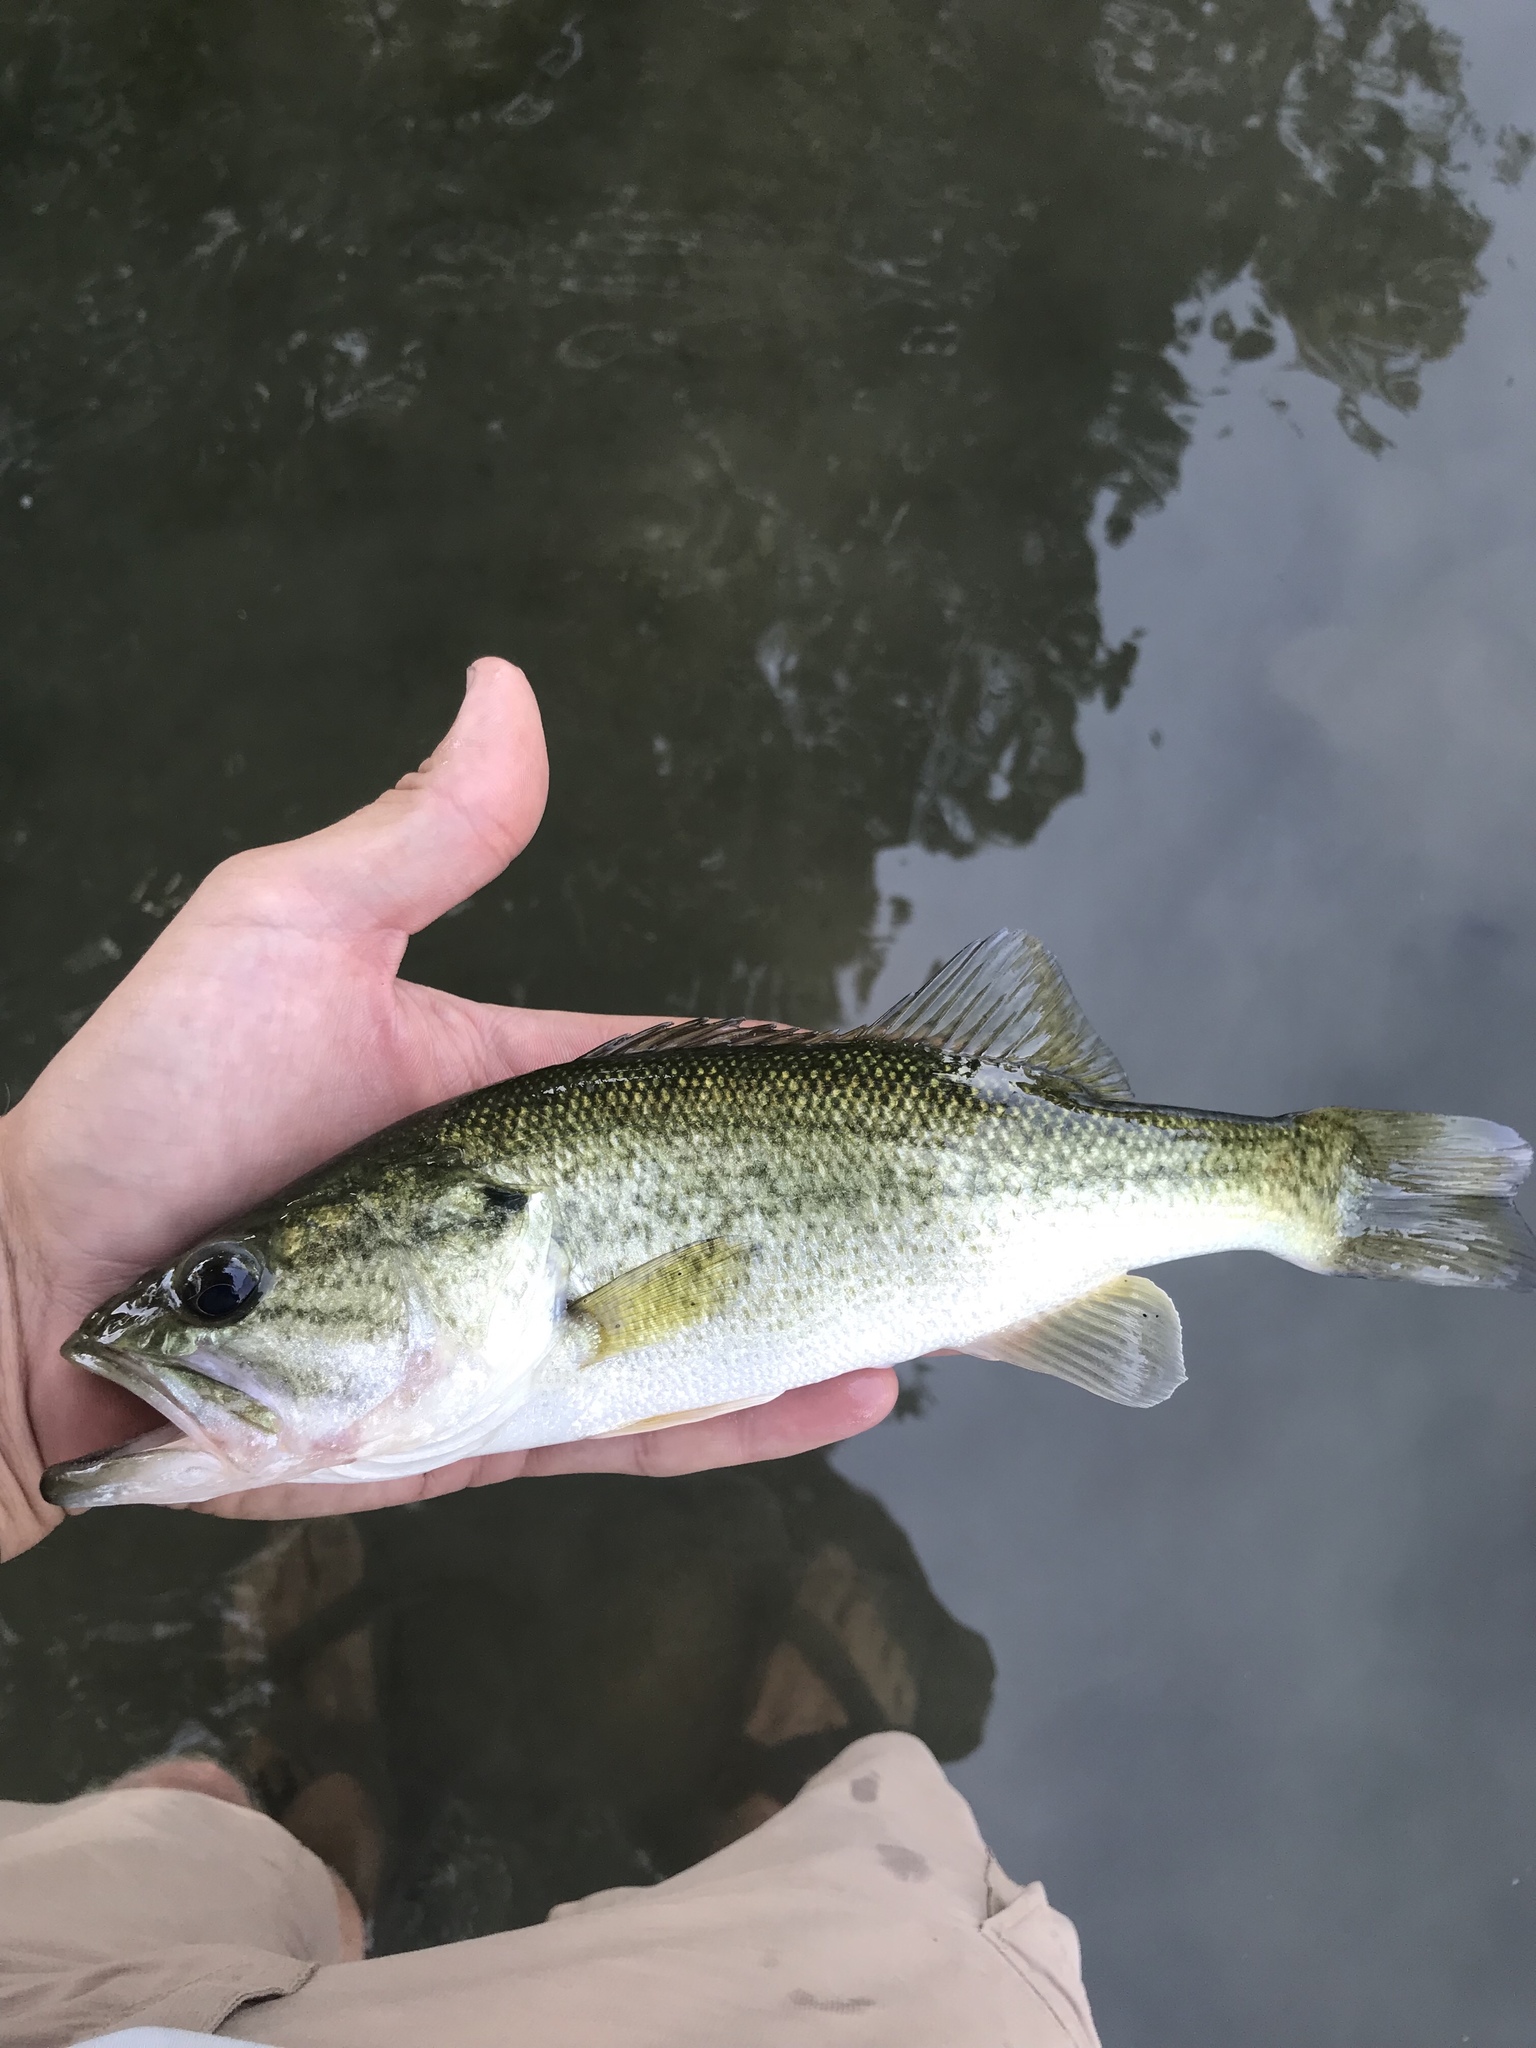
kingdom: Animalia
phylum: Chordata
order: Perciformes
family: Centrarchidae
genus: Micropterus
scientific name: Micropterus
